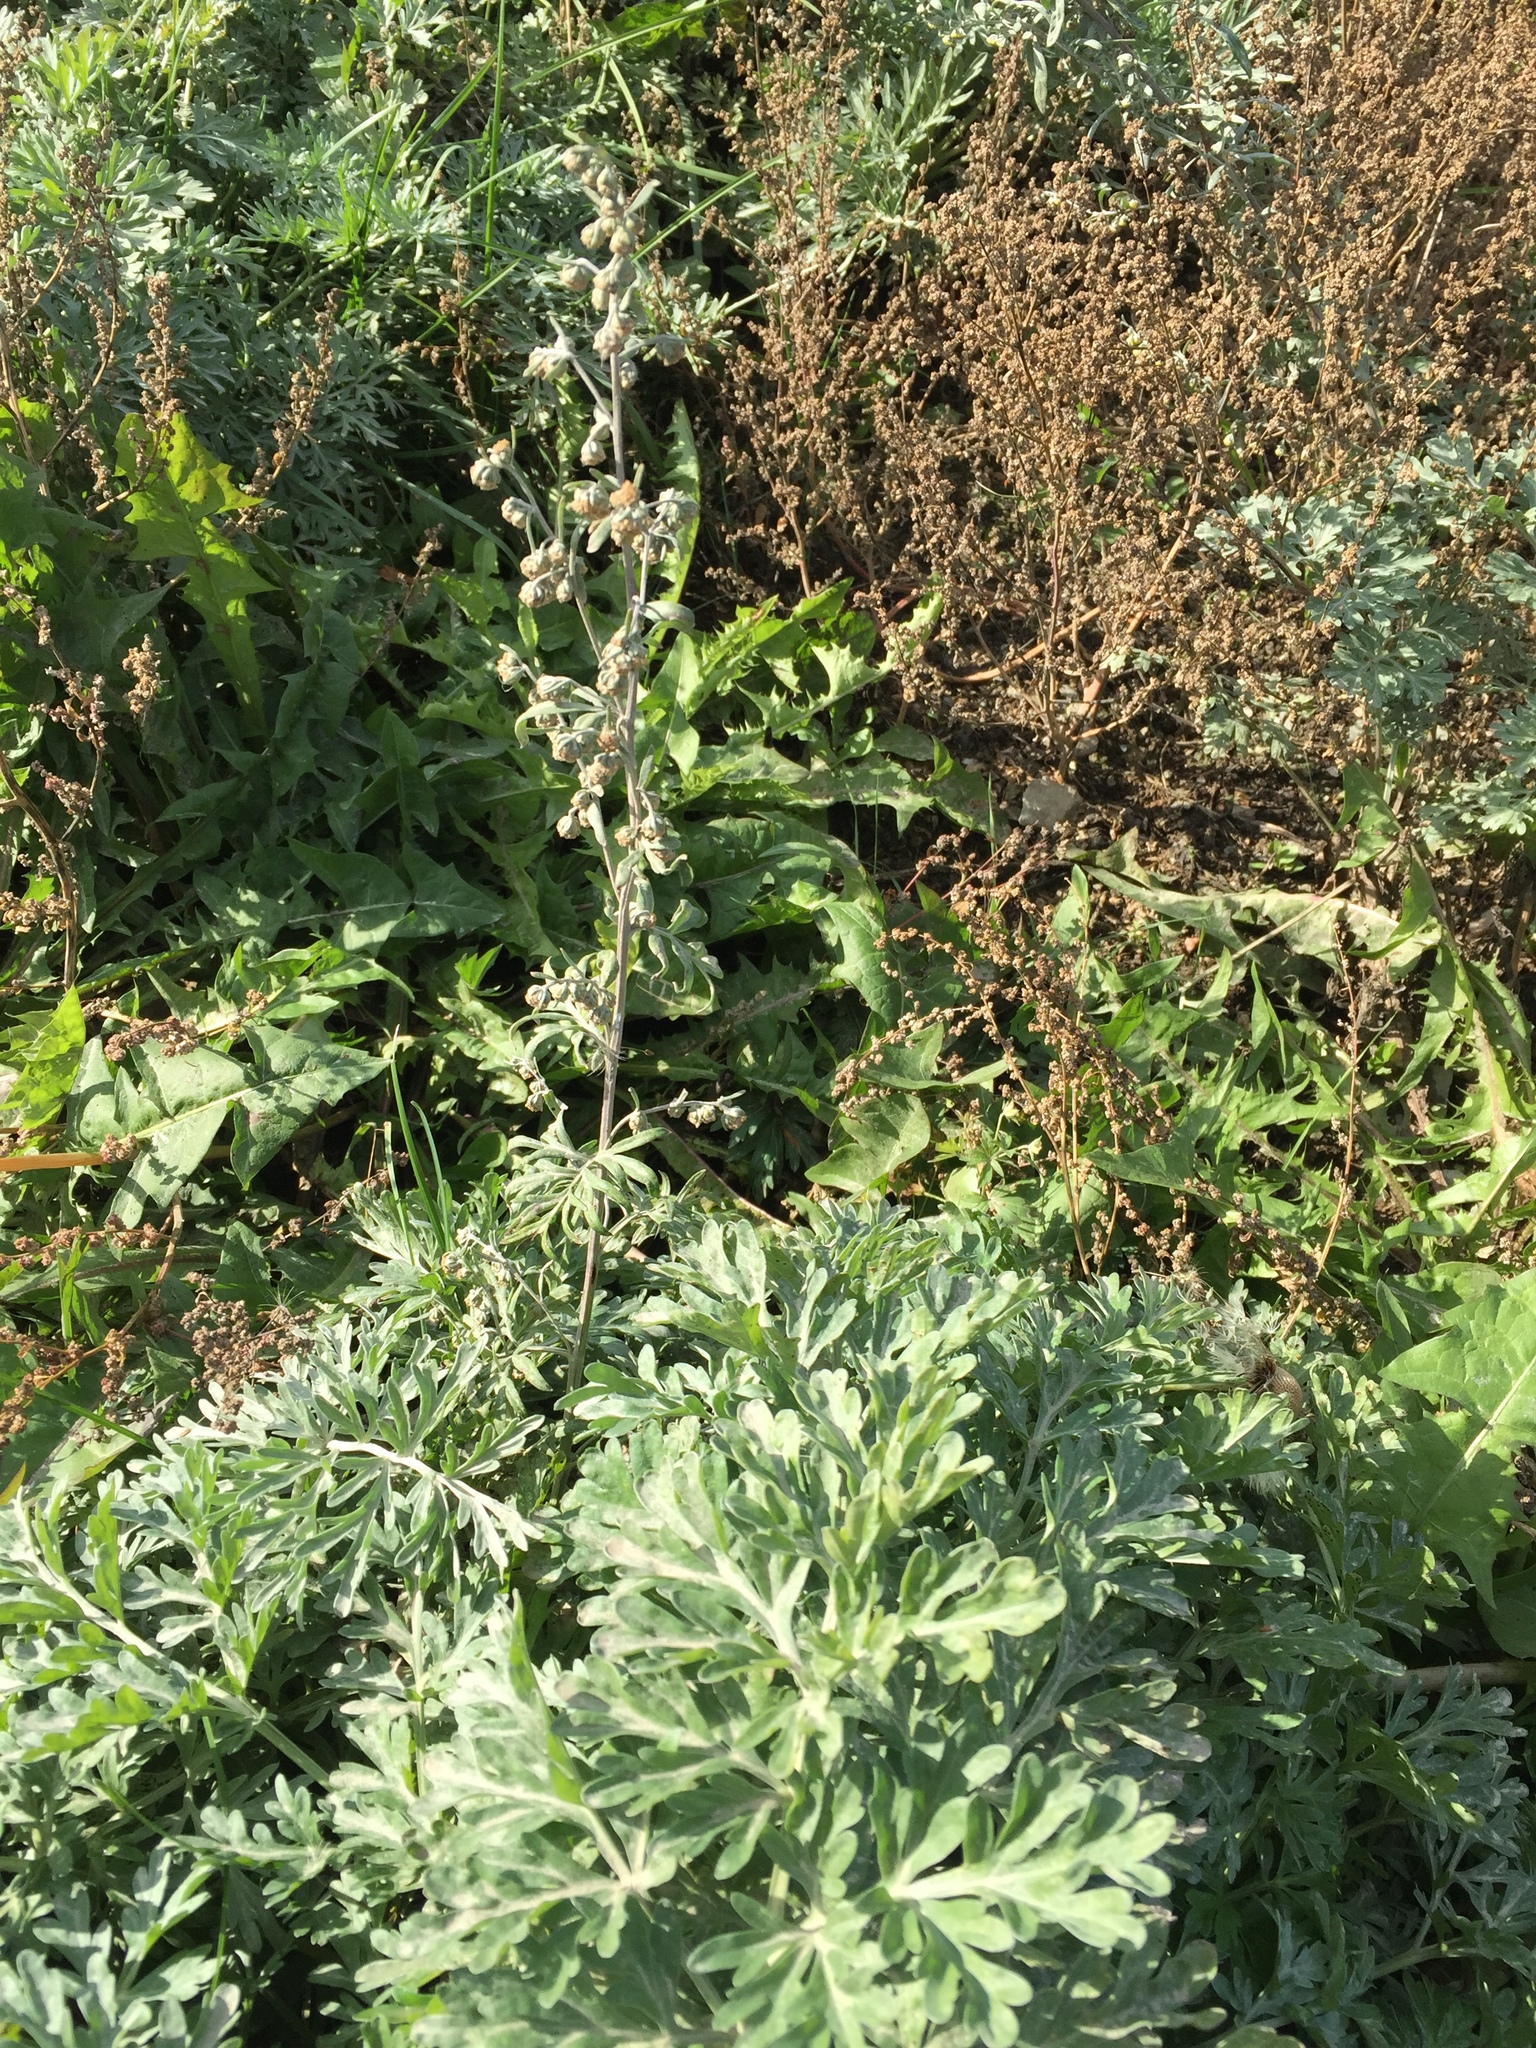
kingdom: Plantae
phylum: Tracheophyta
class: Magnoliopsida
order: Asterales
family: Asteraceae
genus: Artemisia
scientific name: Artemisia absinthium
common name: Wormwood
